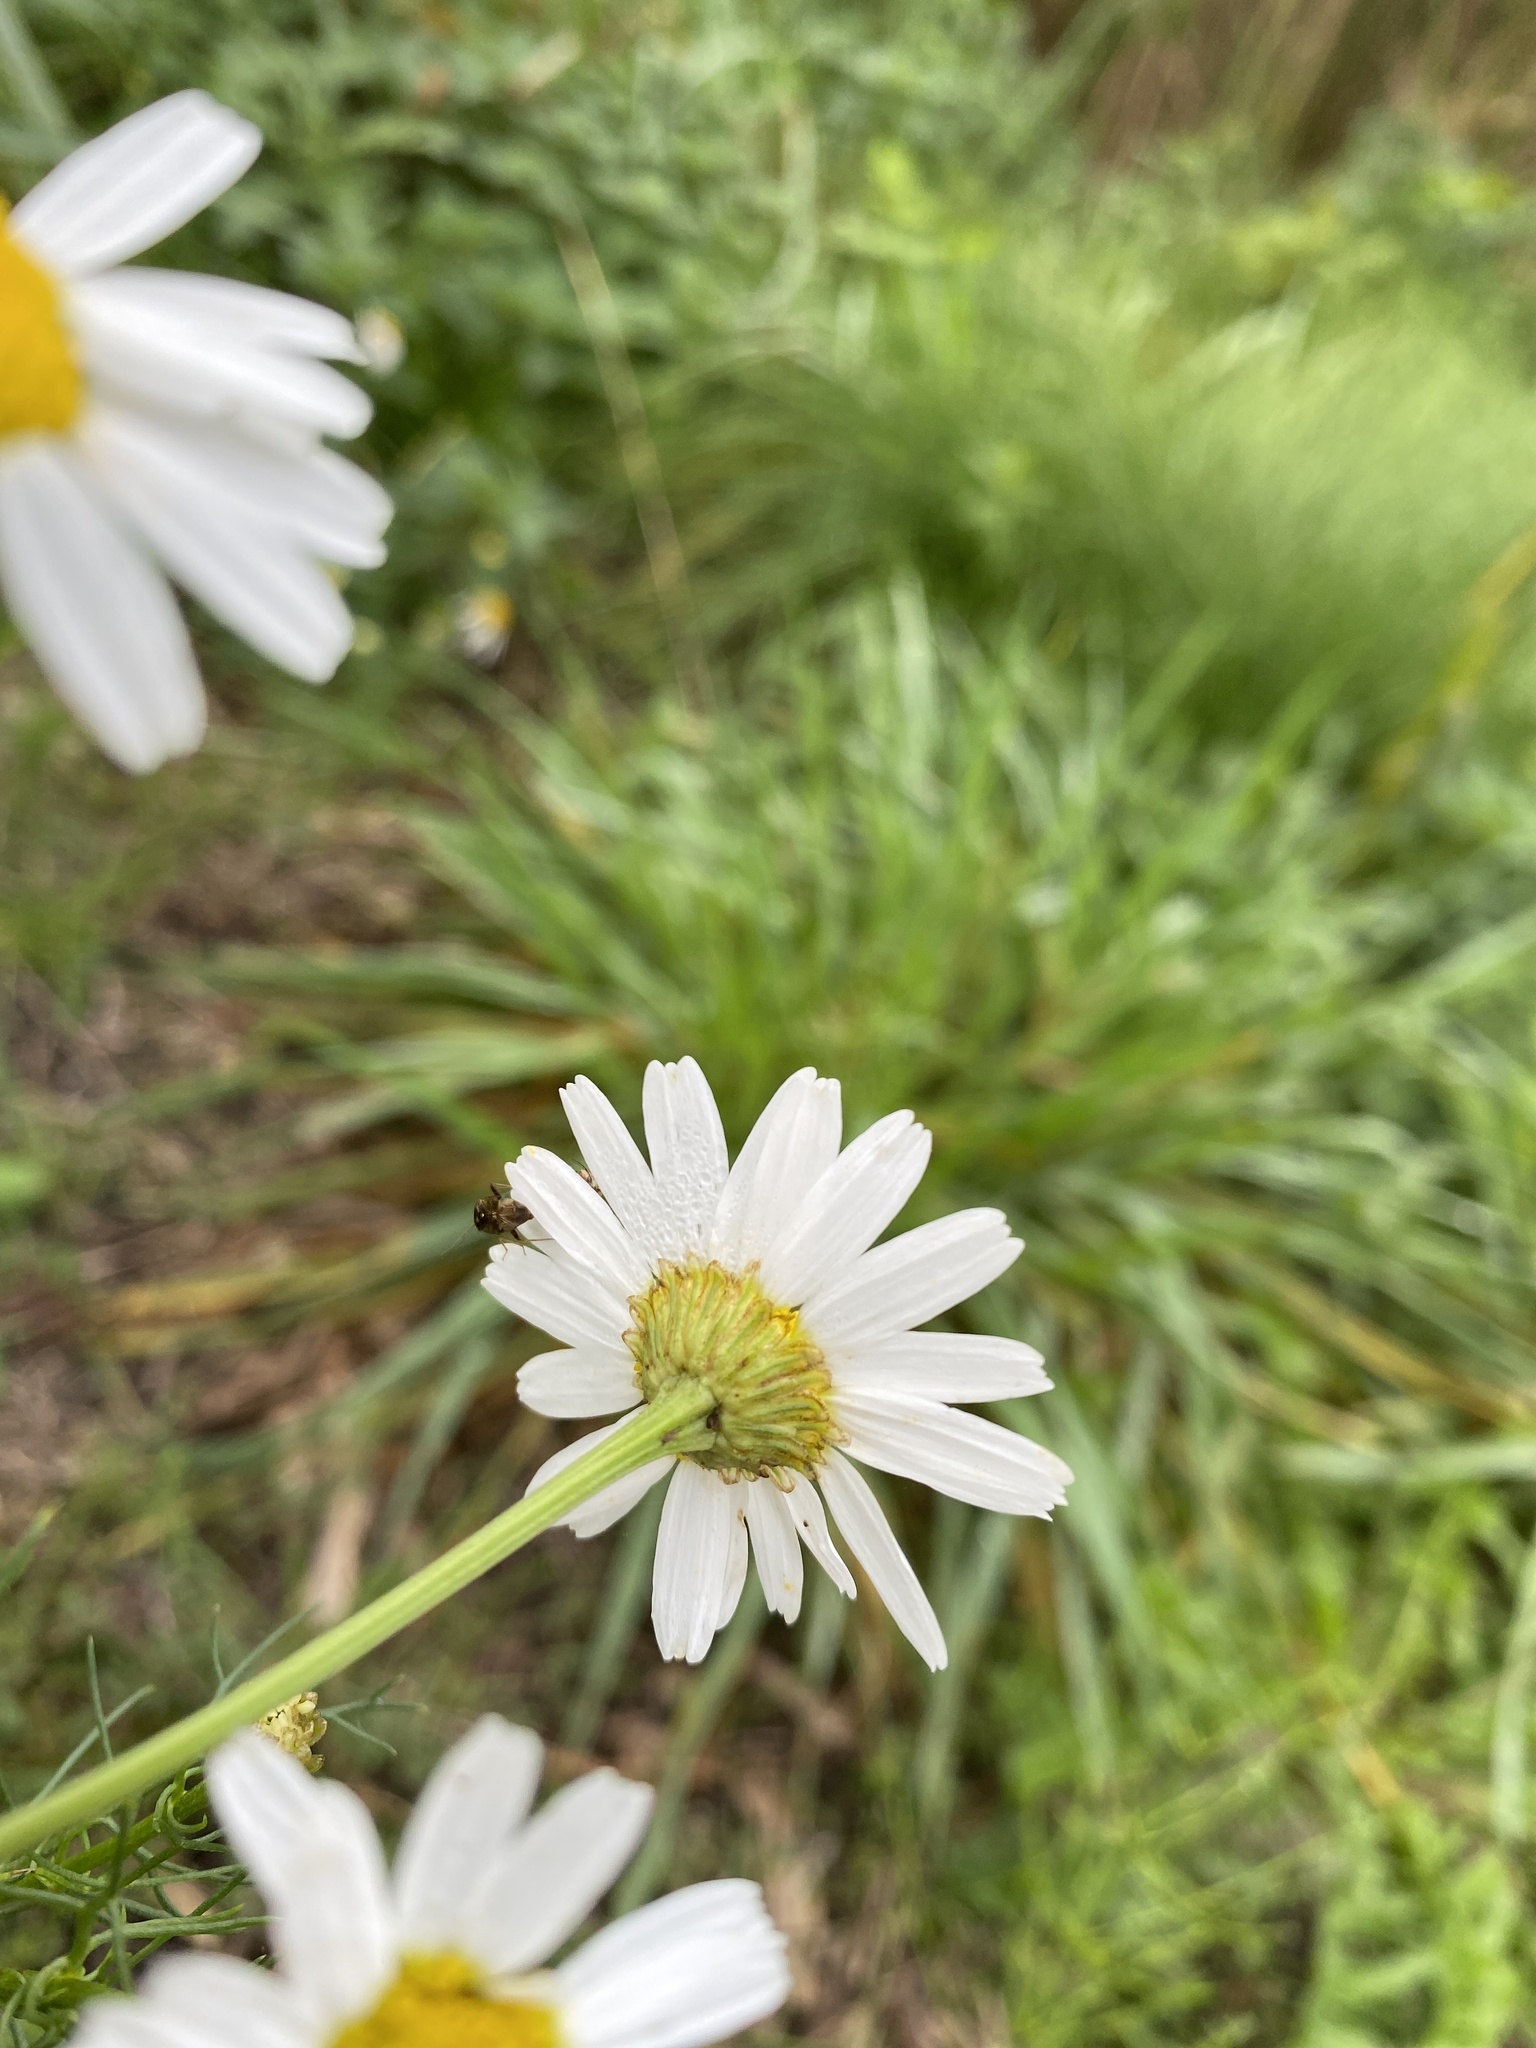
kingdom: Plantae
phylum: Tracheophyta
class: Magnoliopsida
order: Asterales
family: Asteraceae
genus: Tripleurospermum
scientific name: Tripleurospermum inodorum
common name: Scentless mayweed
